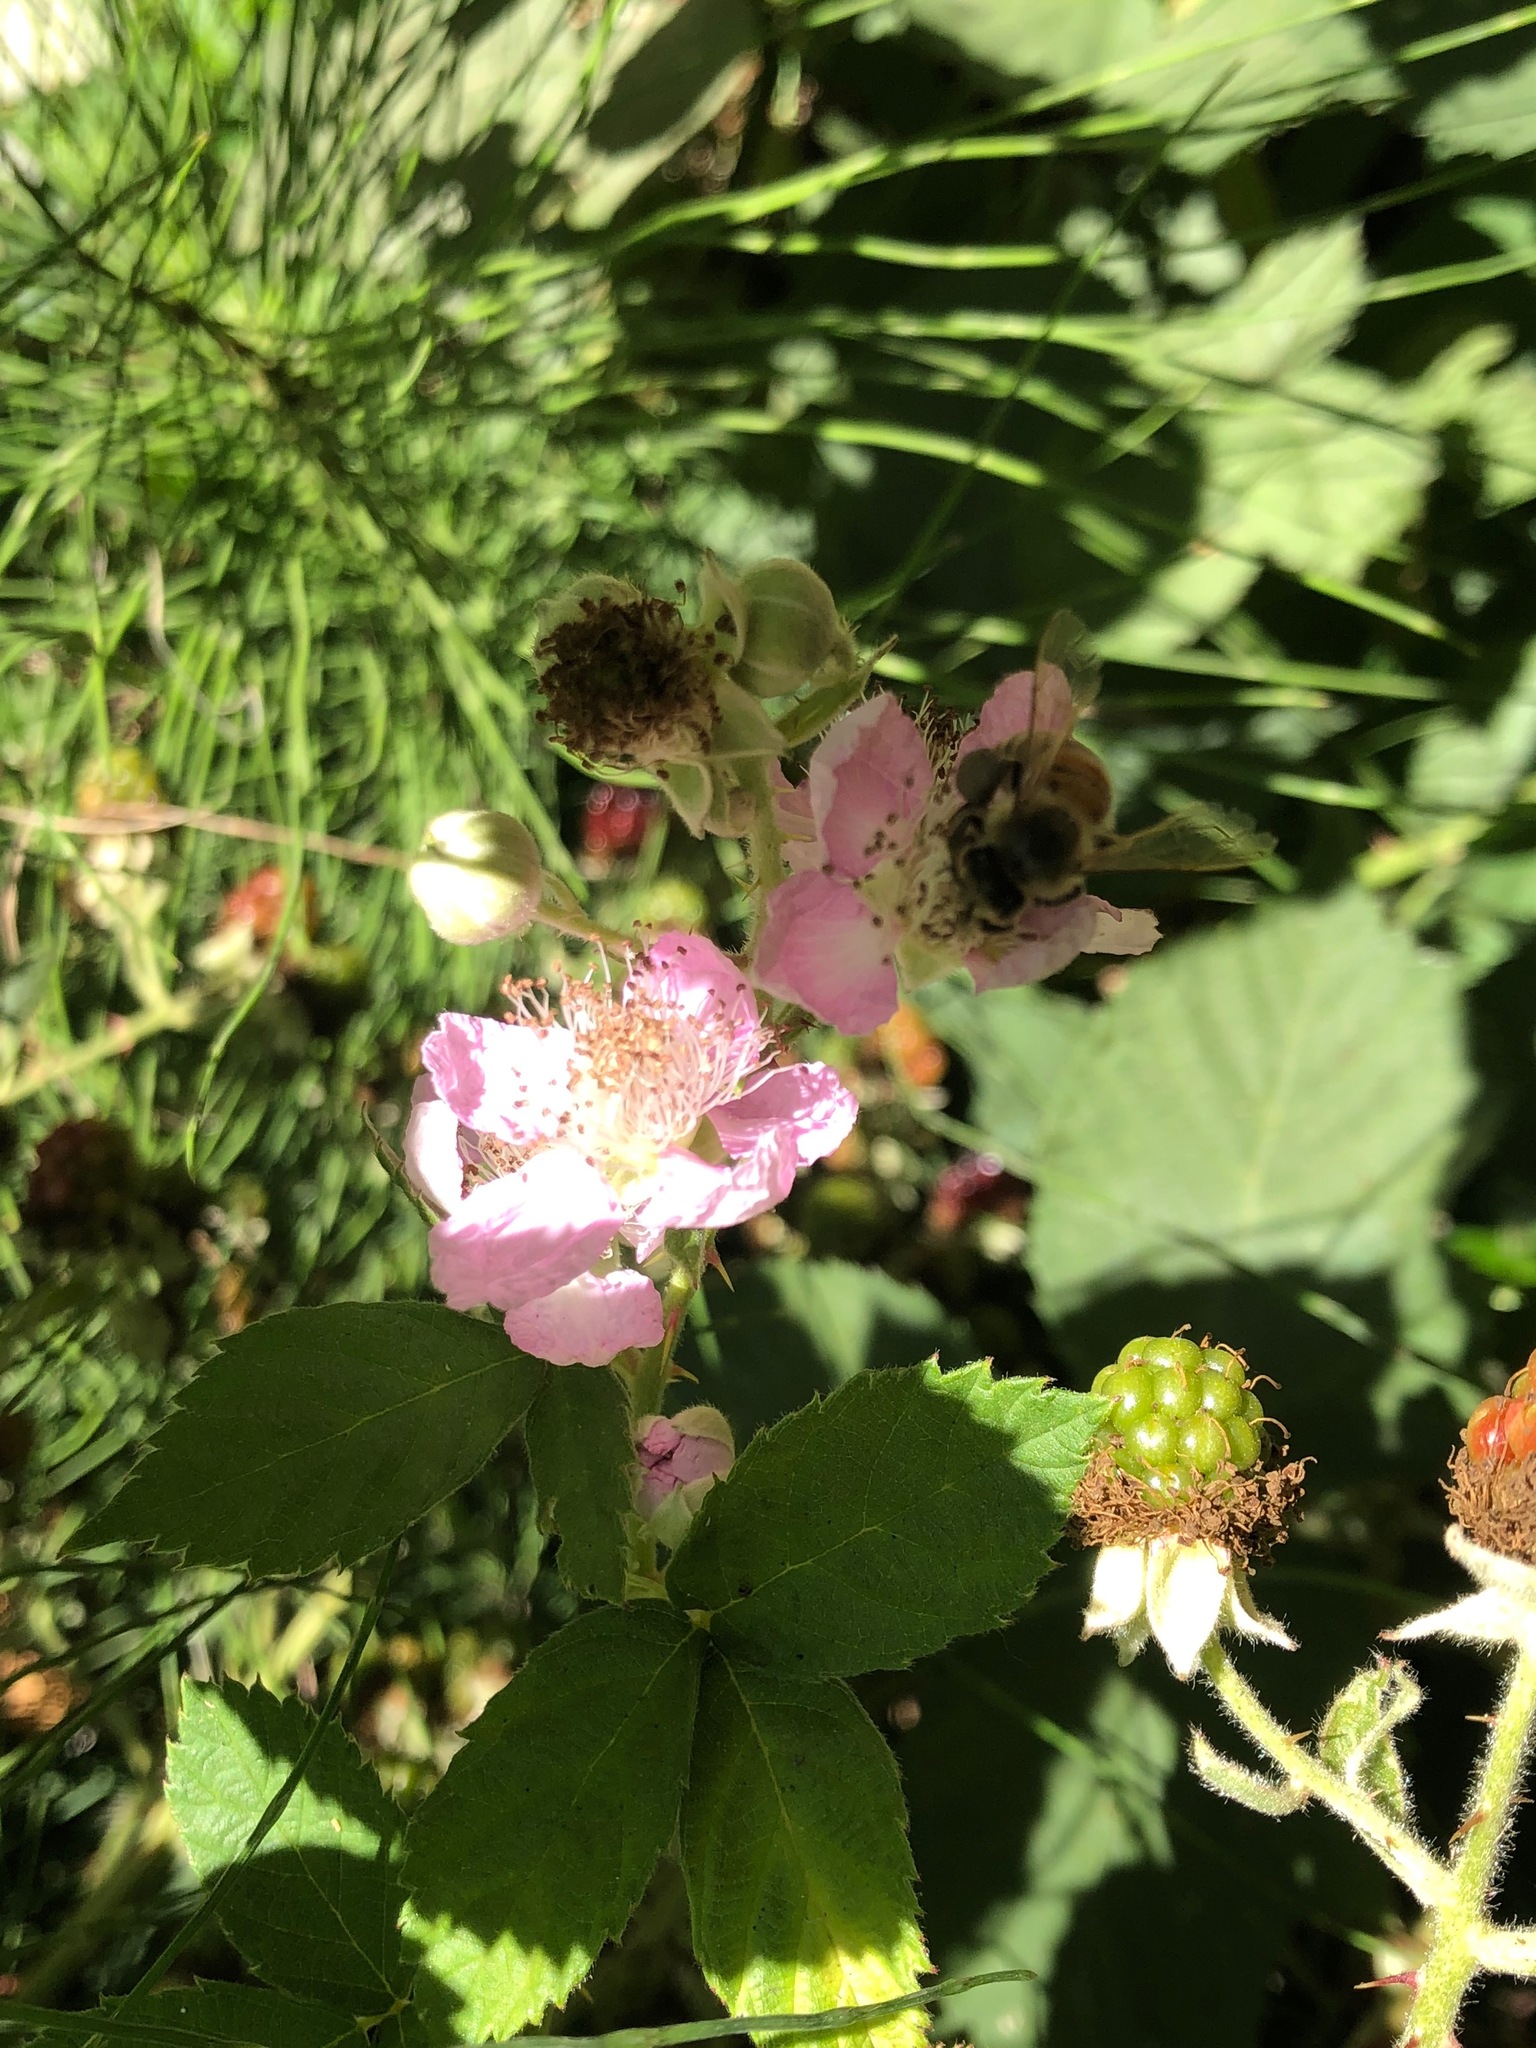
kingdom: Plantae
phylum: Tracheophyta
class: Magnoliopsida
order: Rosales
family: Rosaceae
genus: Rubus
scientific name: Rubus armeniacus
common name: Himalayan blackberry
